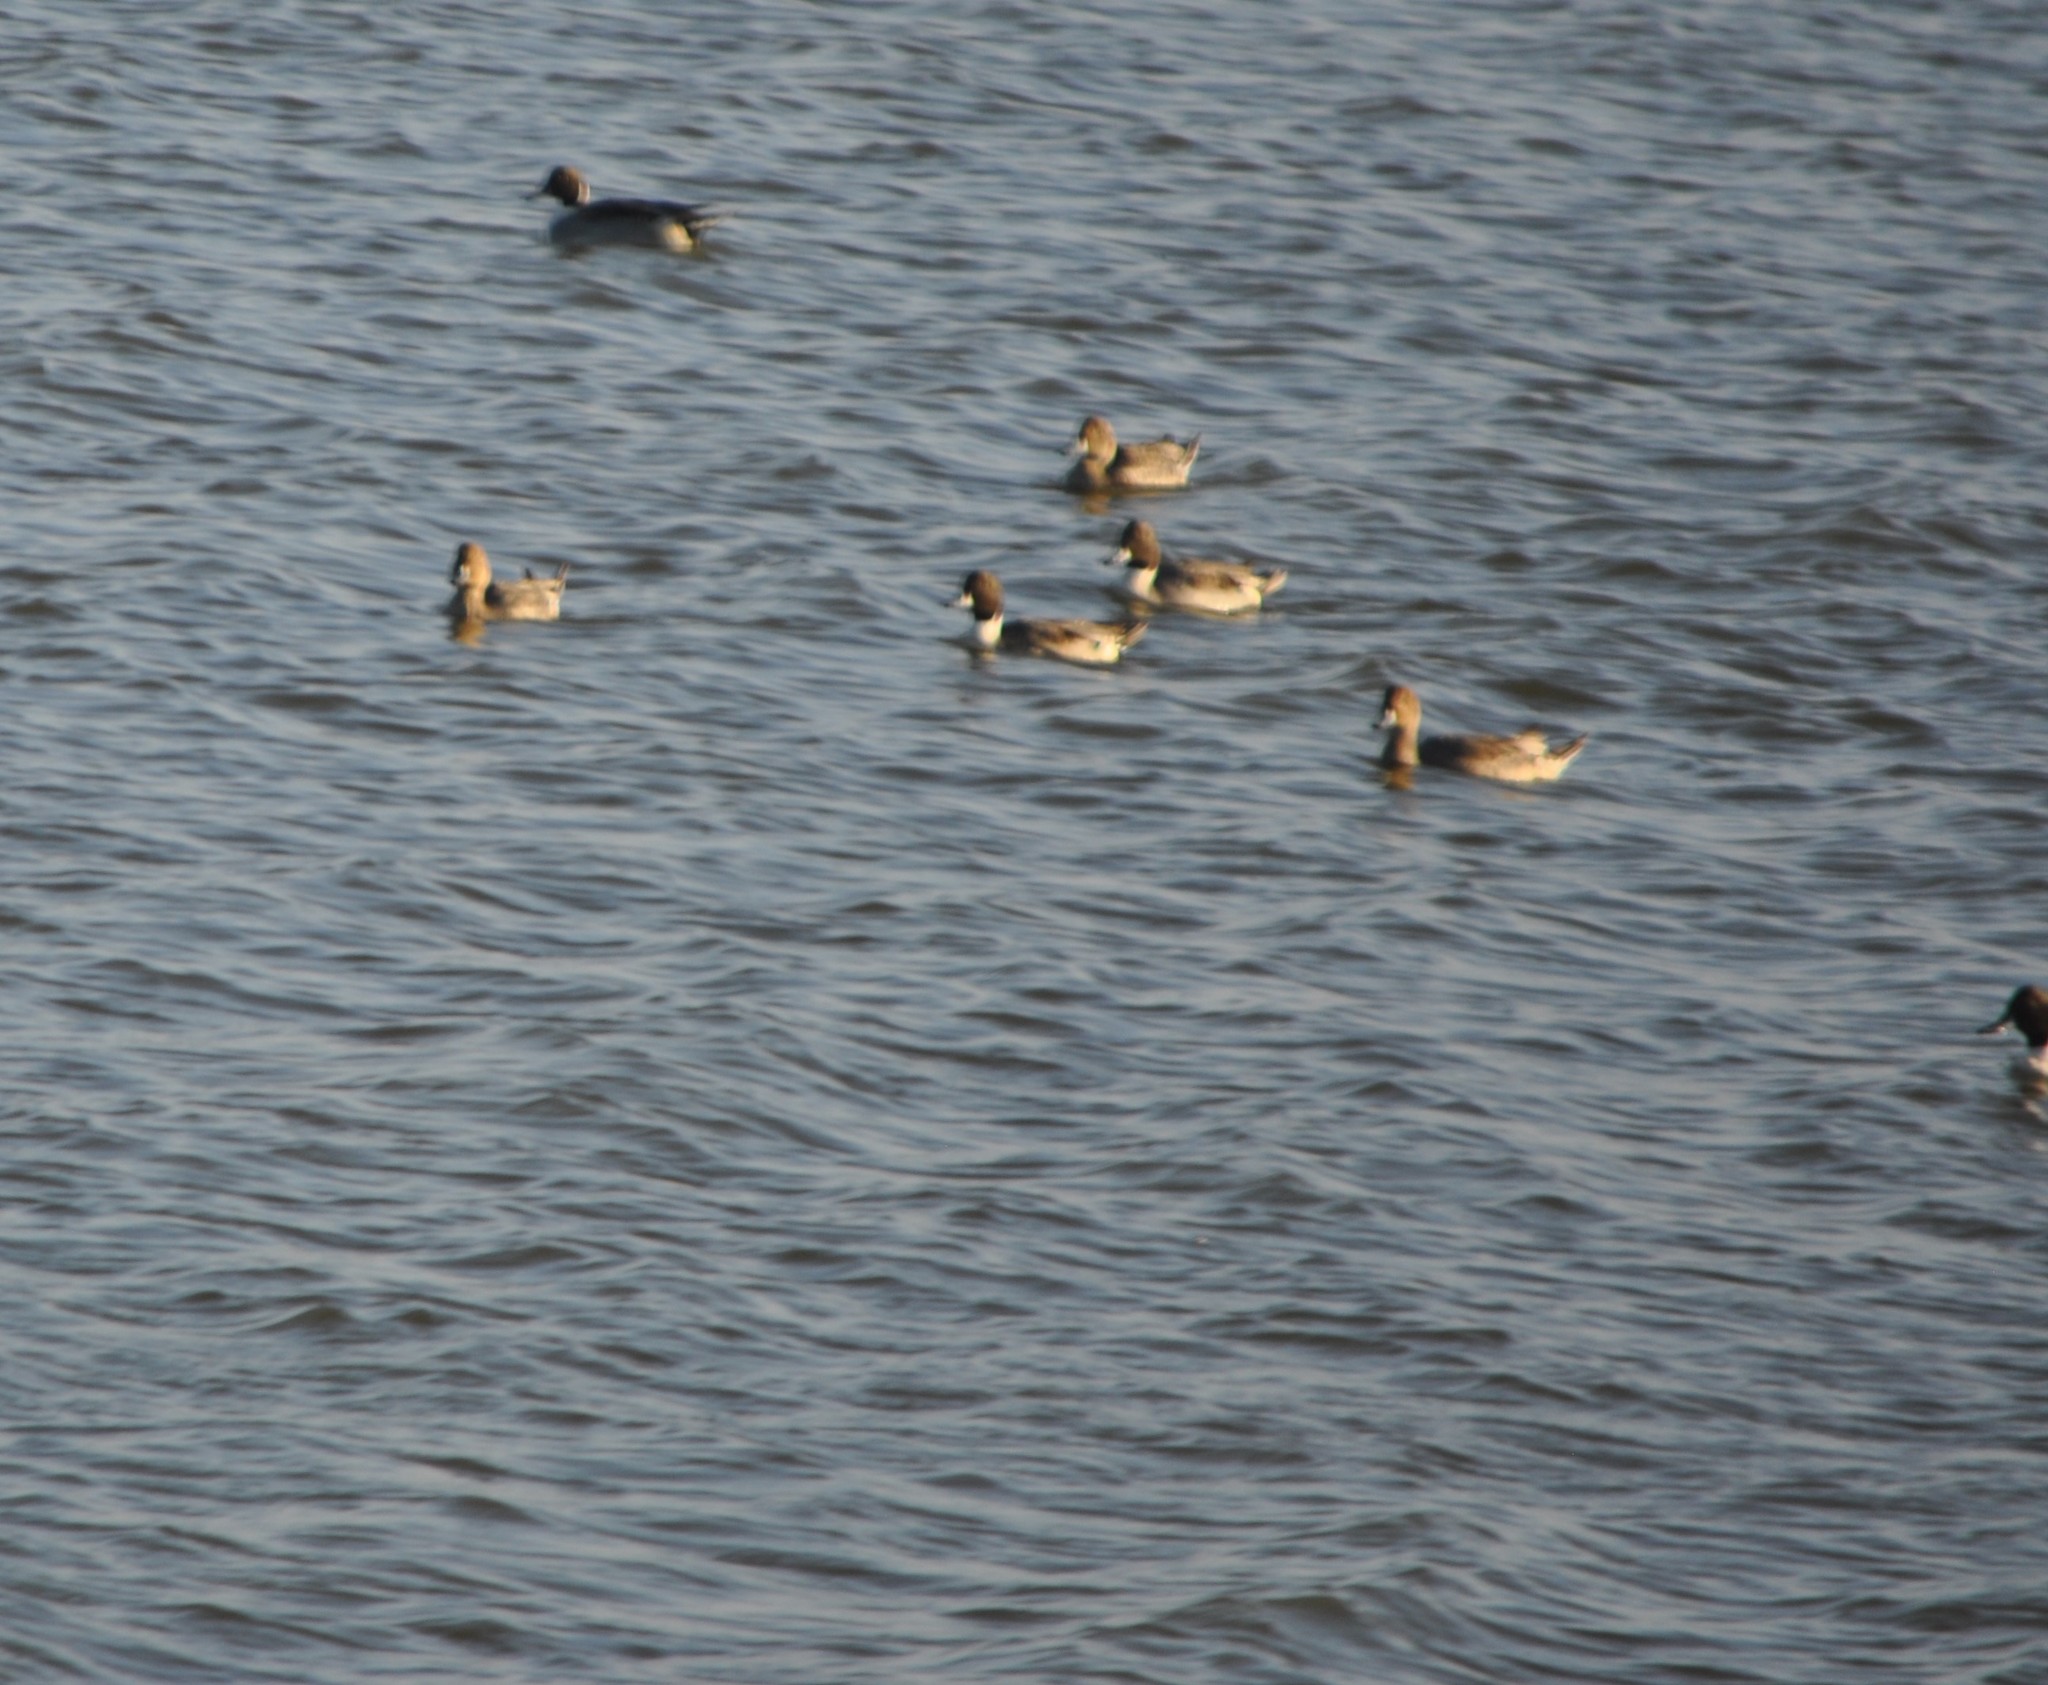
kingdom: Animalia
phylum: Chordata
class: Aves
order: Anseriformes
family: Anatidae
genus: Anas
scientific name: Anas acuta
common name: Northern pintail
